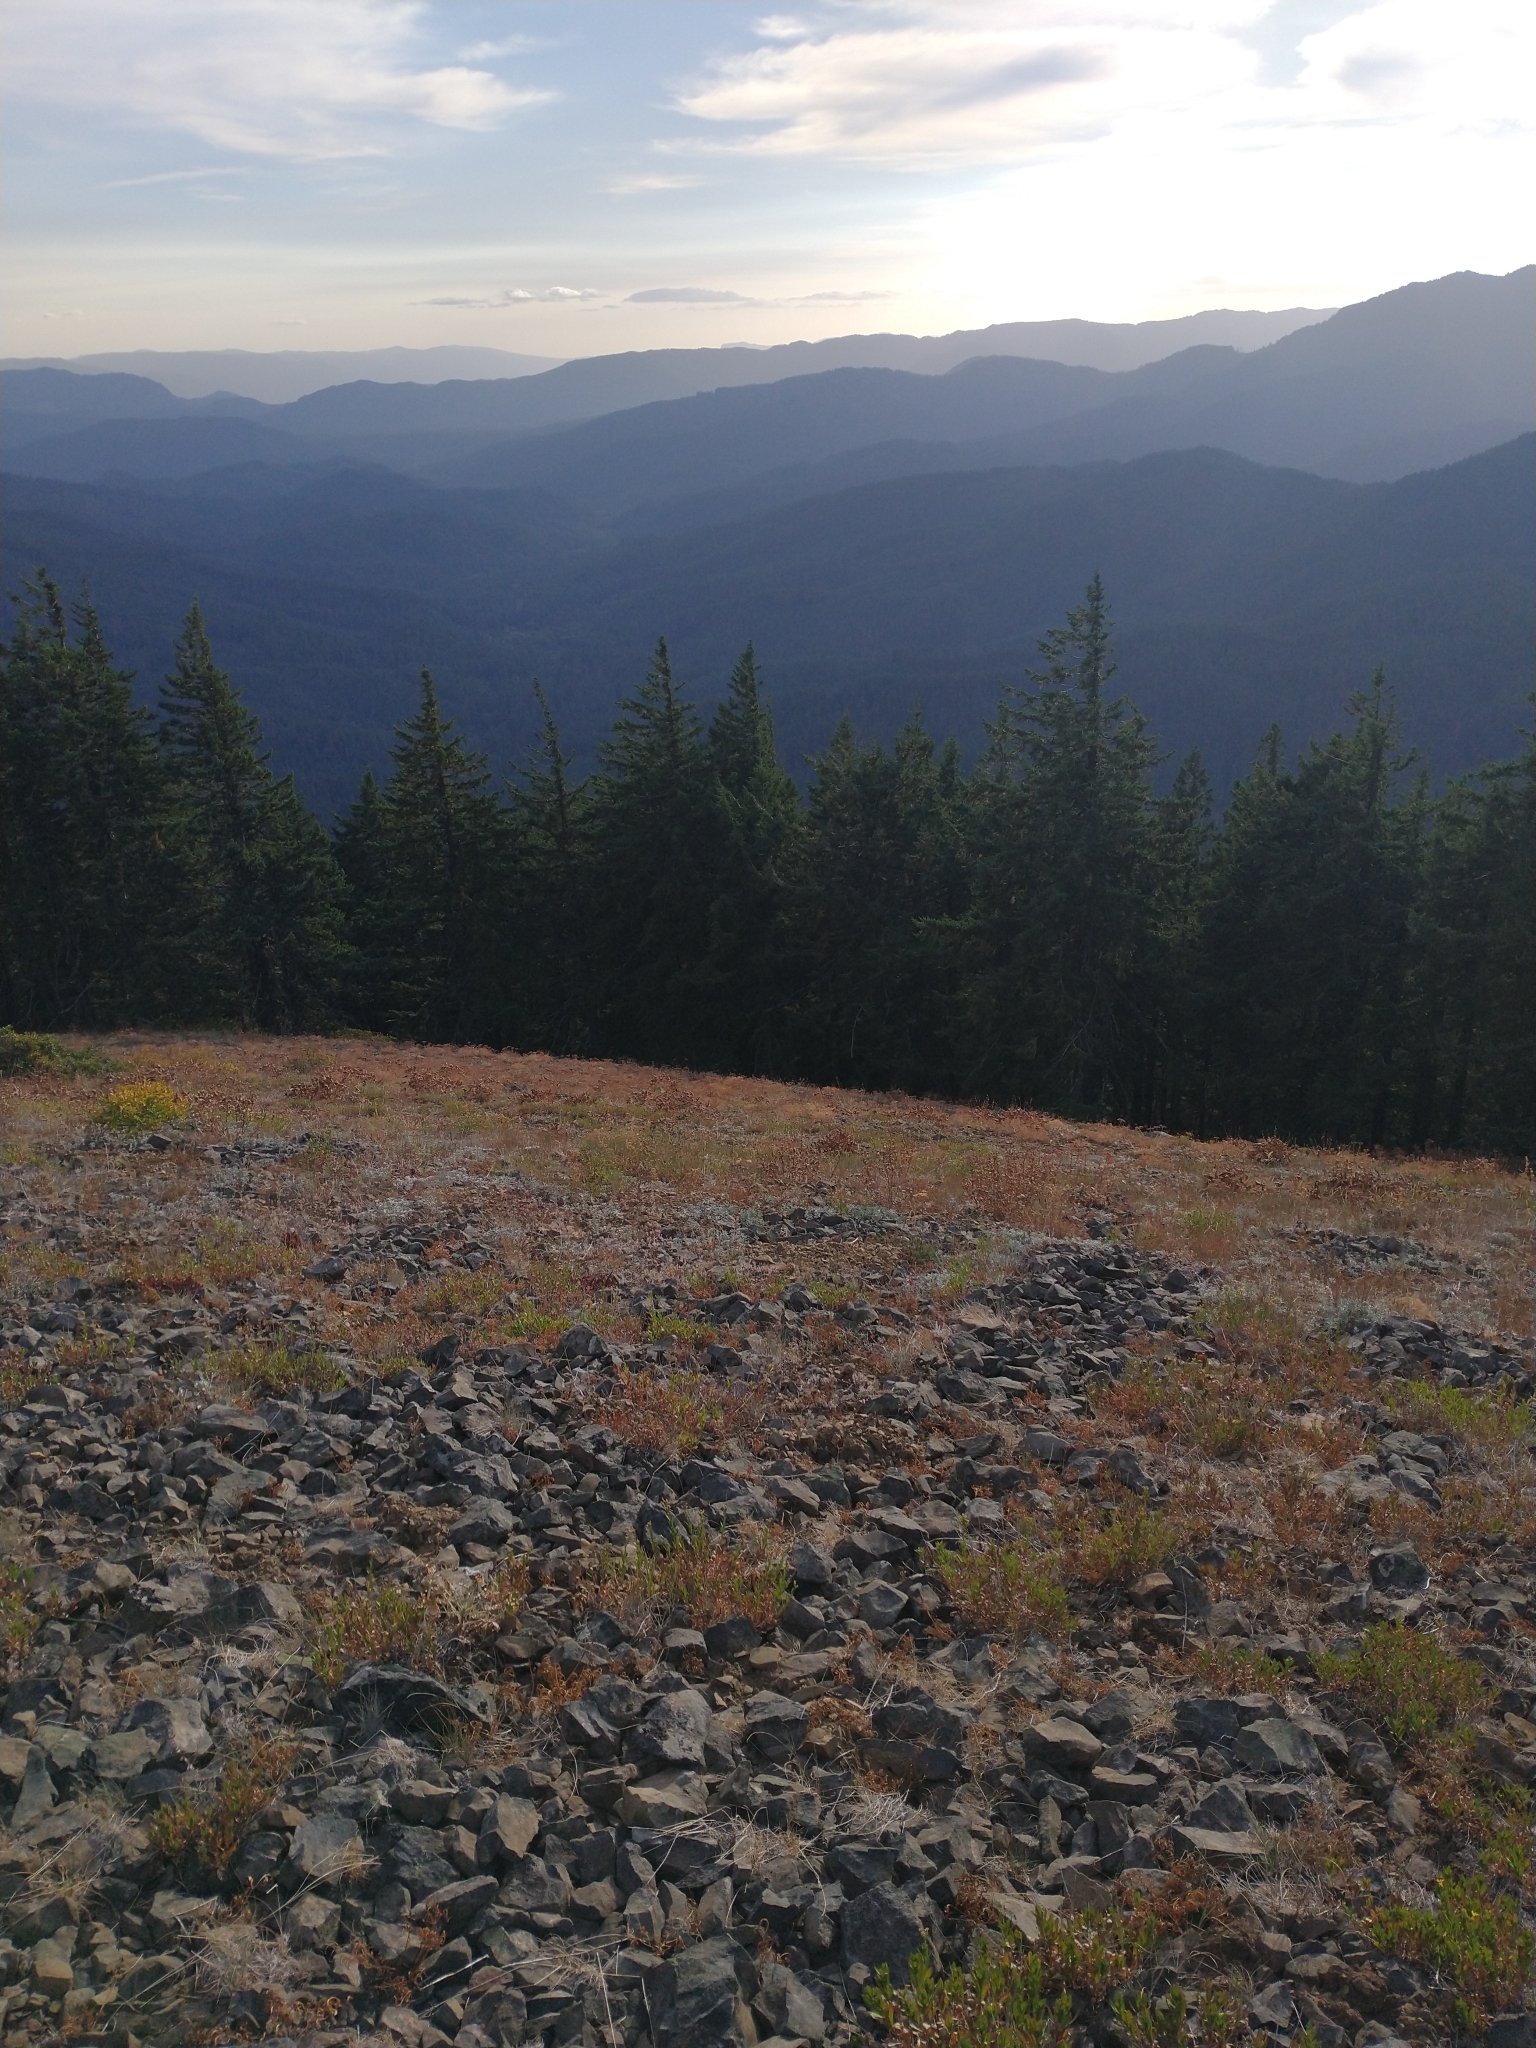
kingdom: Plantae
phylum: Tracheophyta
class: Pinopsida
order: Pinales
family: Pinaceae
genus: Pseudotsuga
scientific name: Pseudotsuga menziesii
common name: Douglas fir
